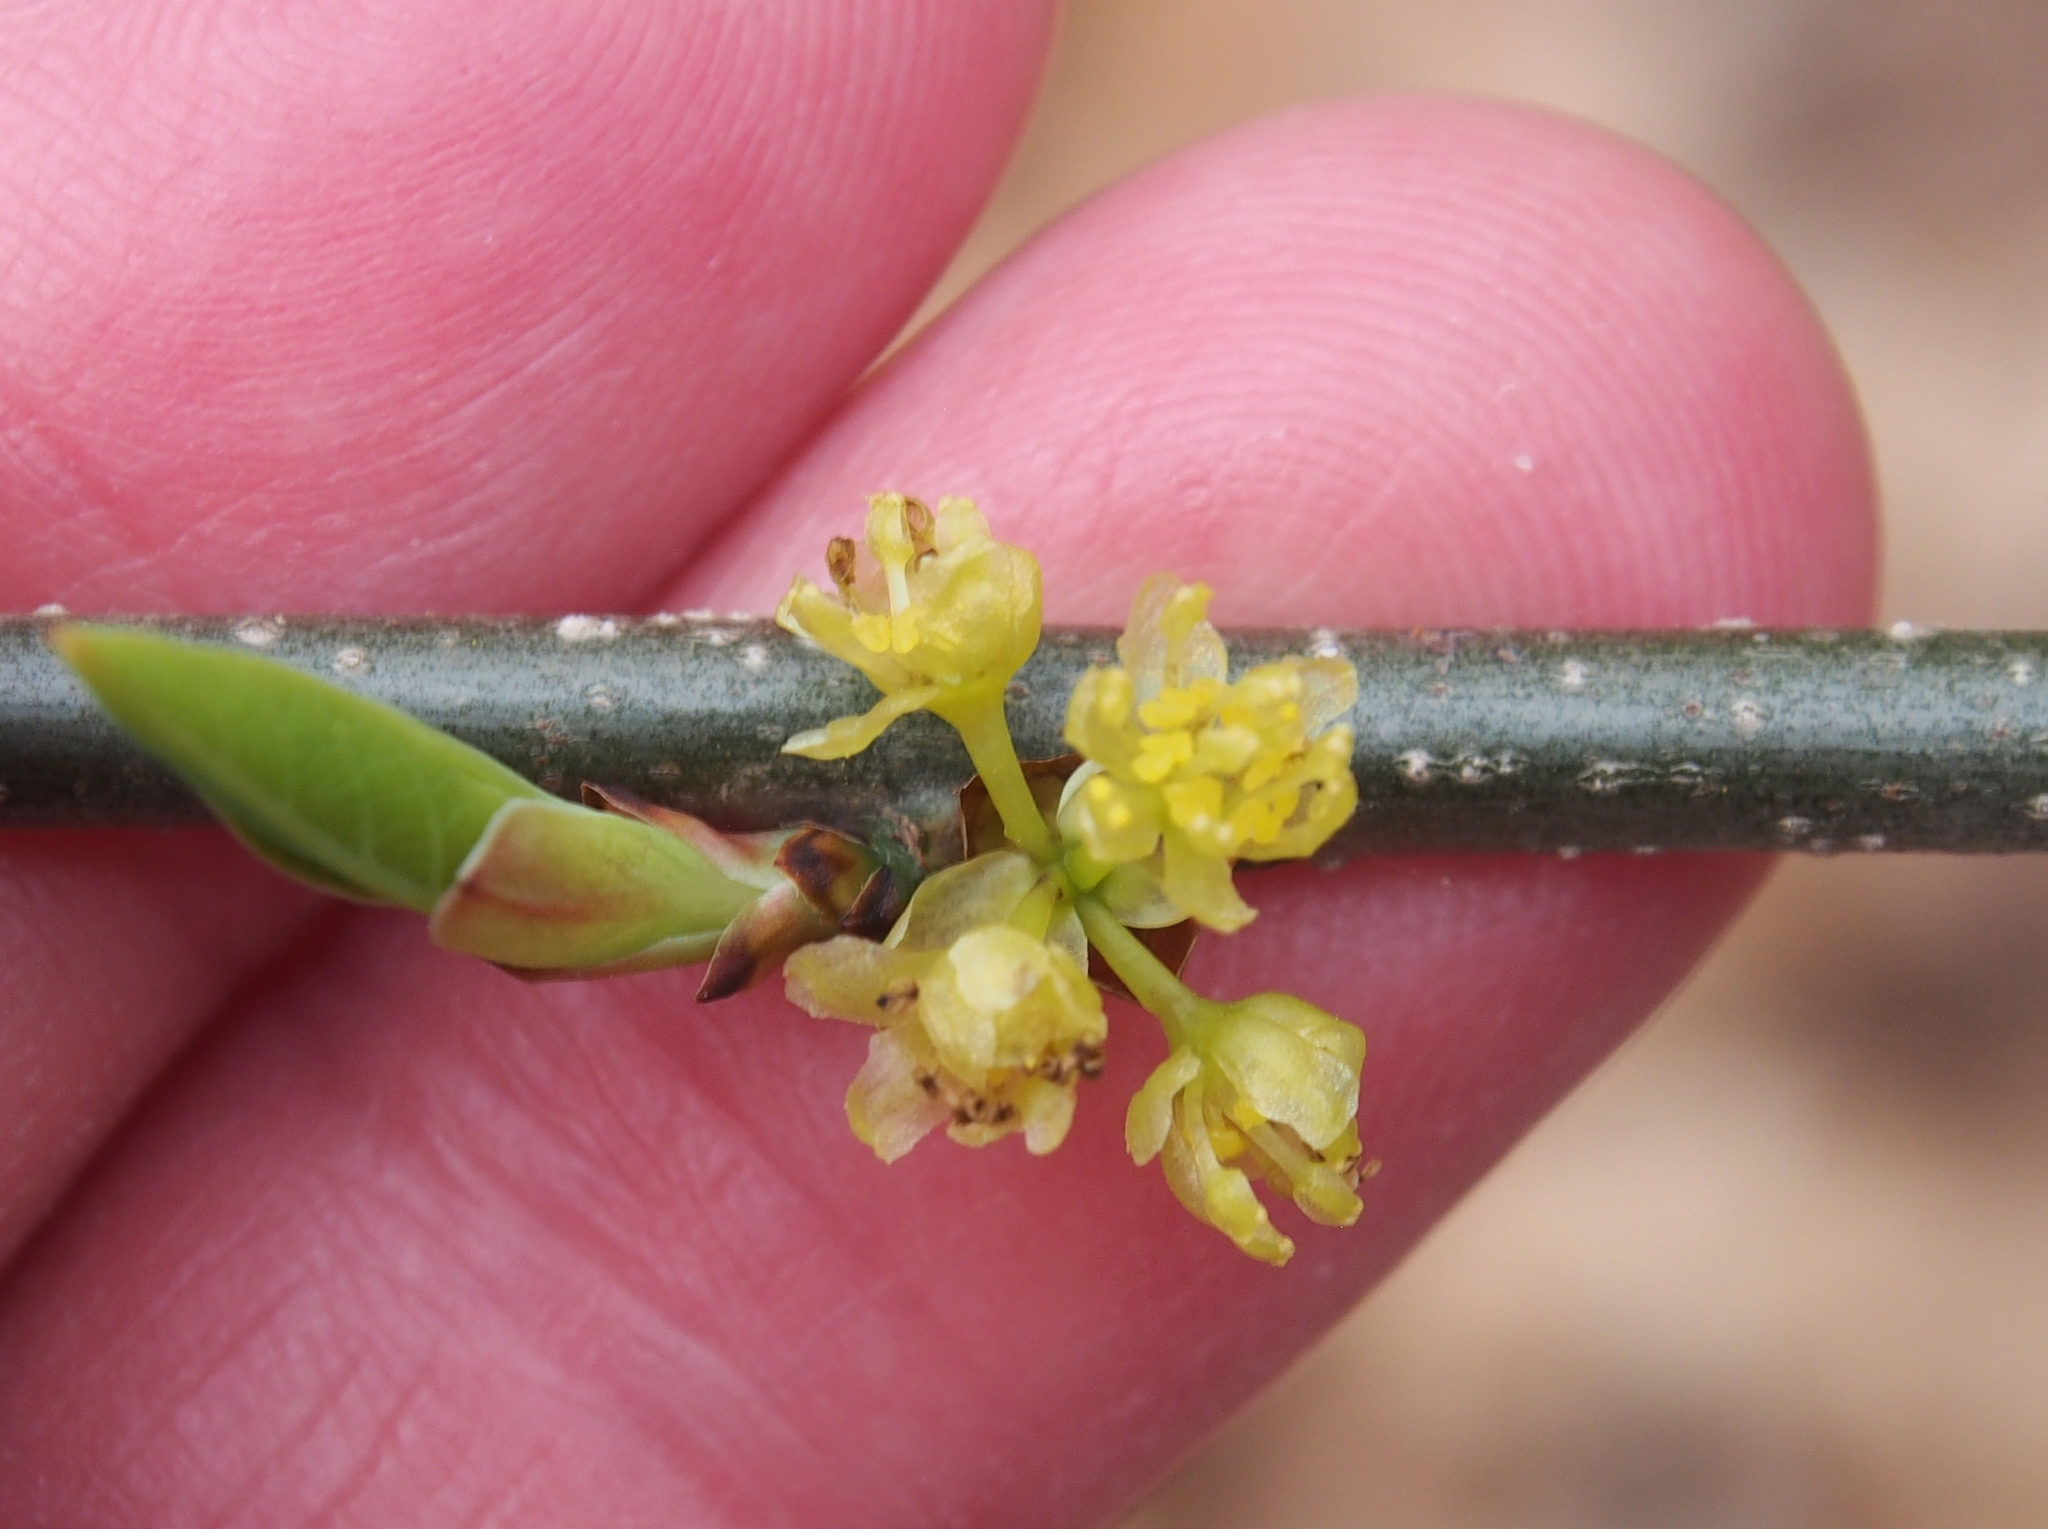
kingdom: Plantae
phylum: Tracheophyta
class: Magnoliopsida
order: Laurales
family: Lauraceae
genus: Sassafras
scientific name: Sassafras albidum
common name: Sassafras
